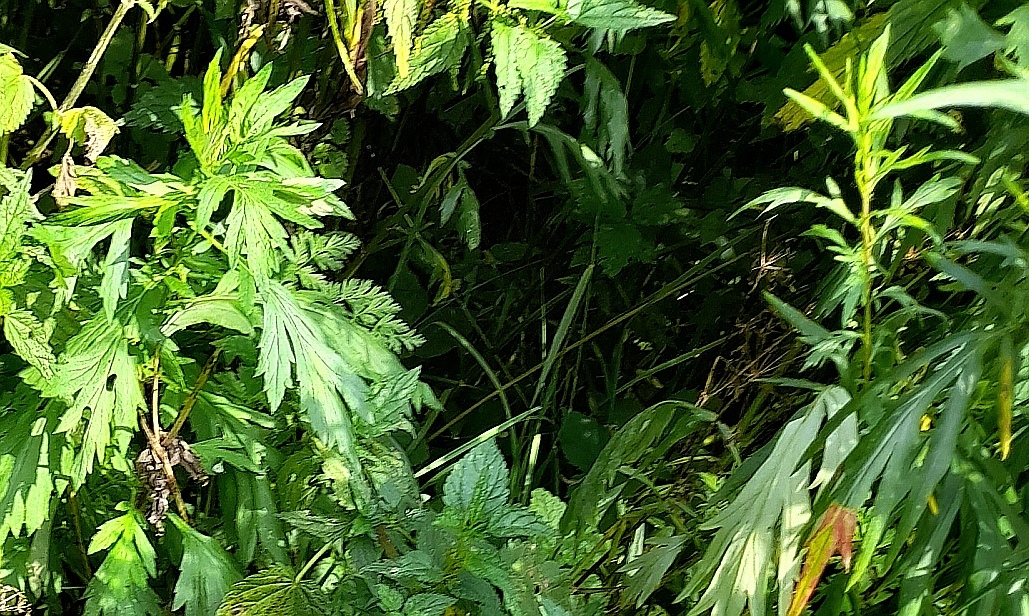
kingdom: Plantae
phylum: Tracheophyta
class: Magnoliopsida
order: Asterales
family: Asteraceae
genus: Artemisia
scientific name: Artemisia vulgaris
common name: Mugwort
